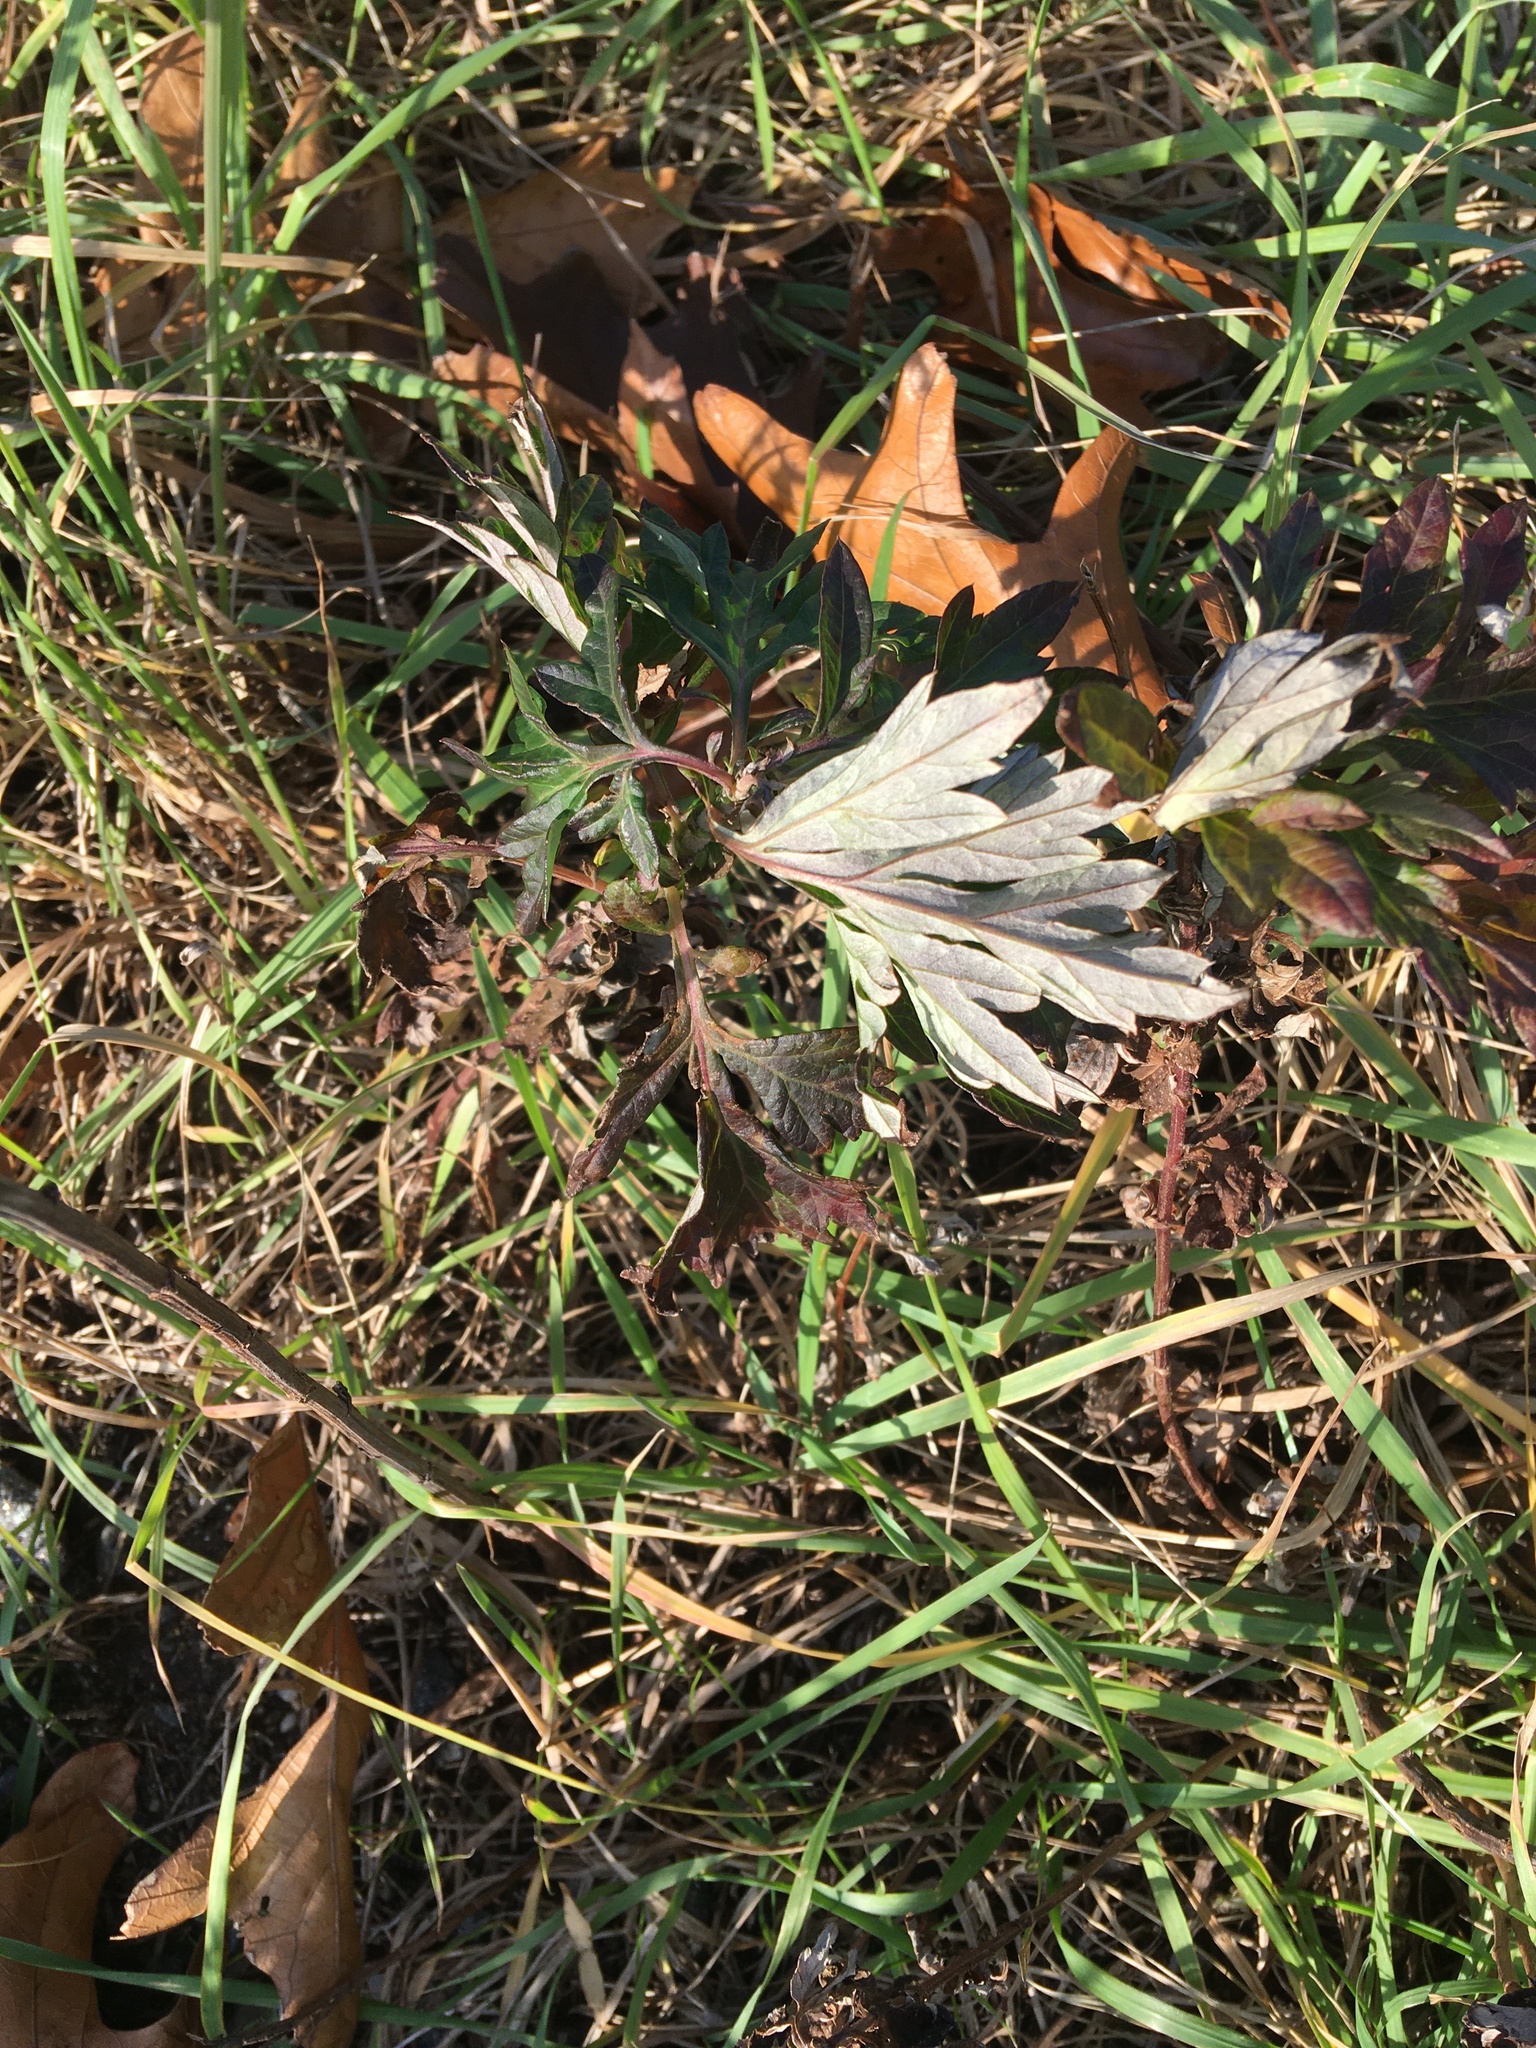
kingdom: Plantae
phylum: Tracheophyta
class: Magnoliopsida
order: Asterales
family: Asteraceae
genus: Artemisia
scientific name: Artemisia vulgaris
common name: Mugwort
